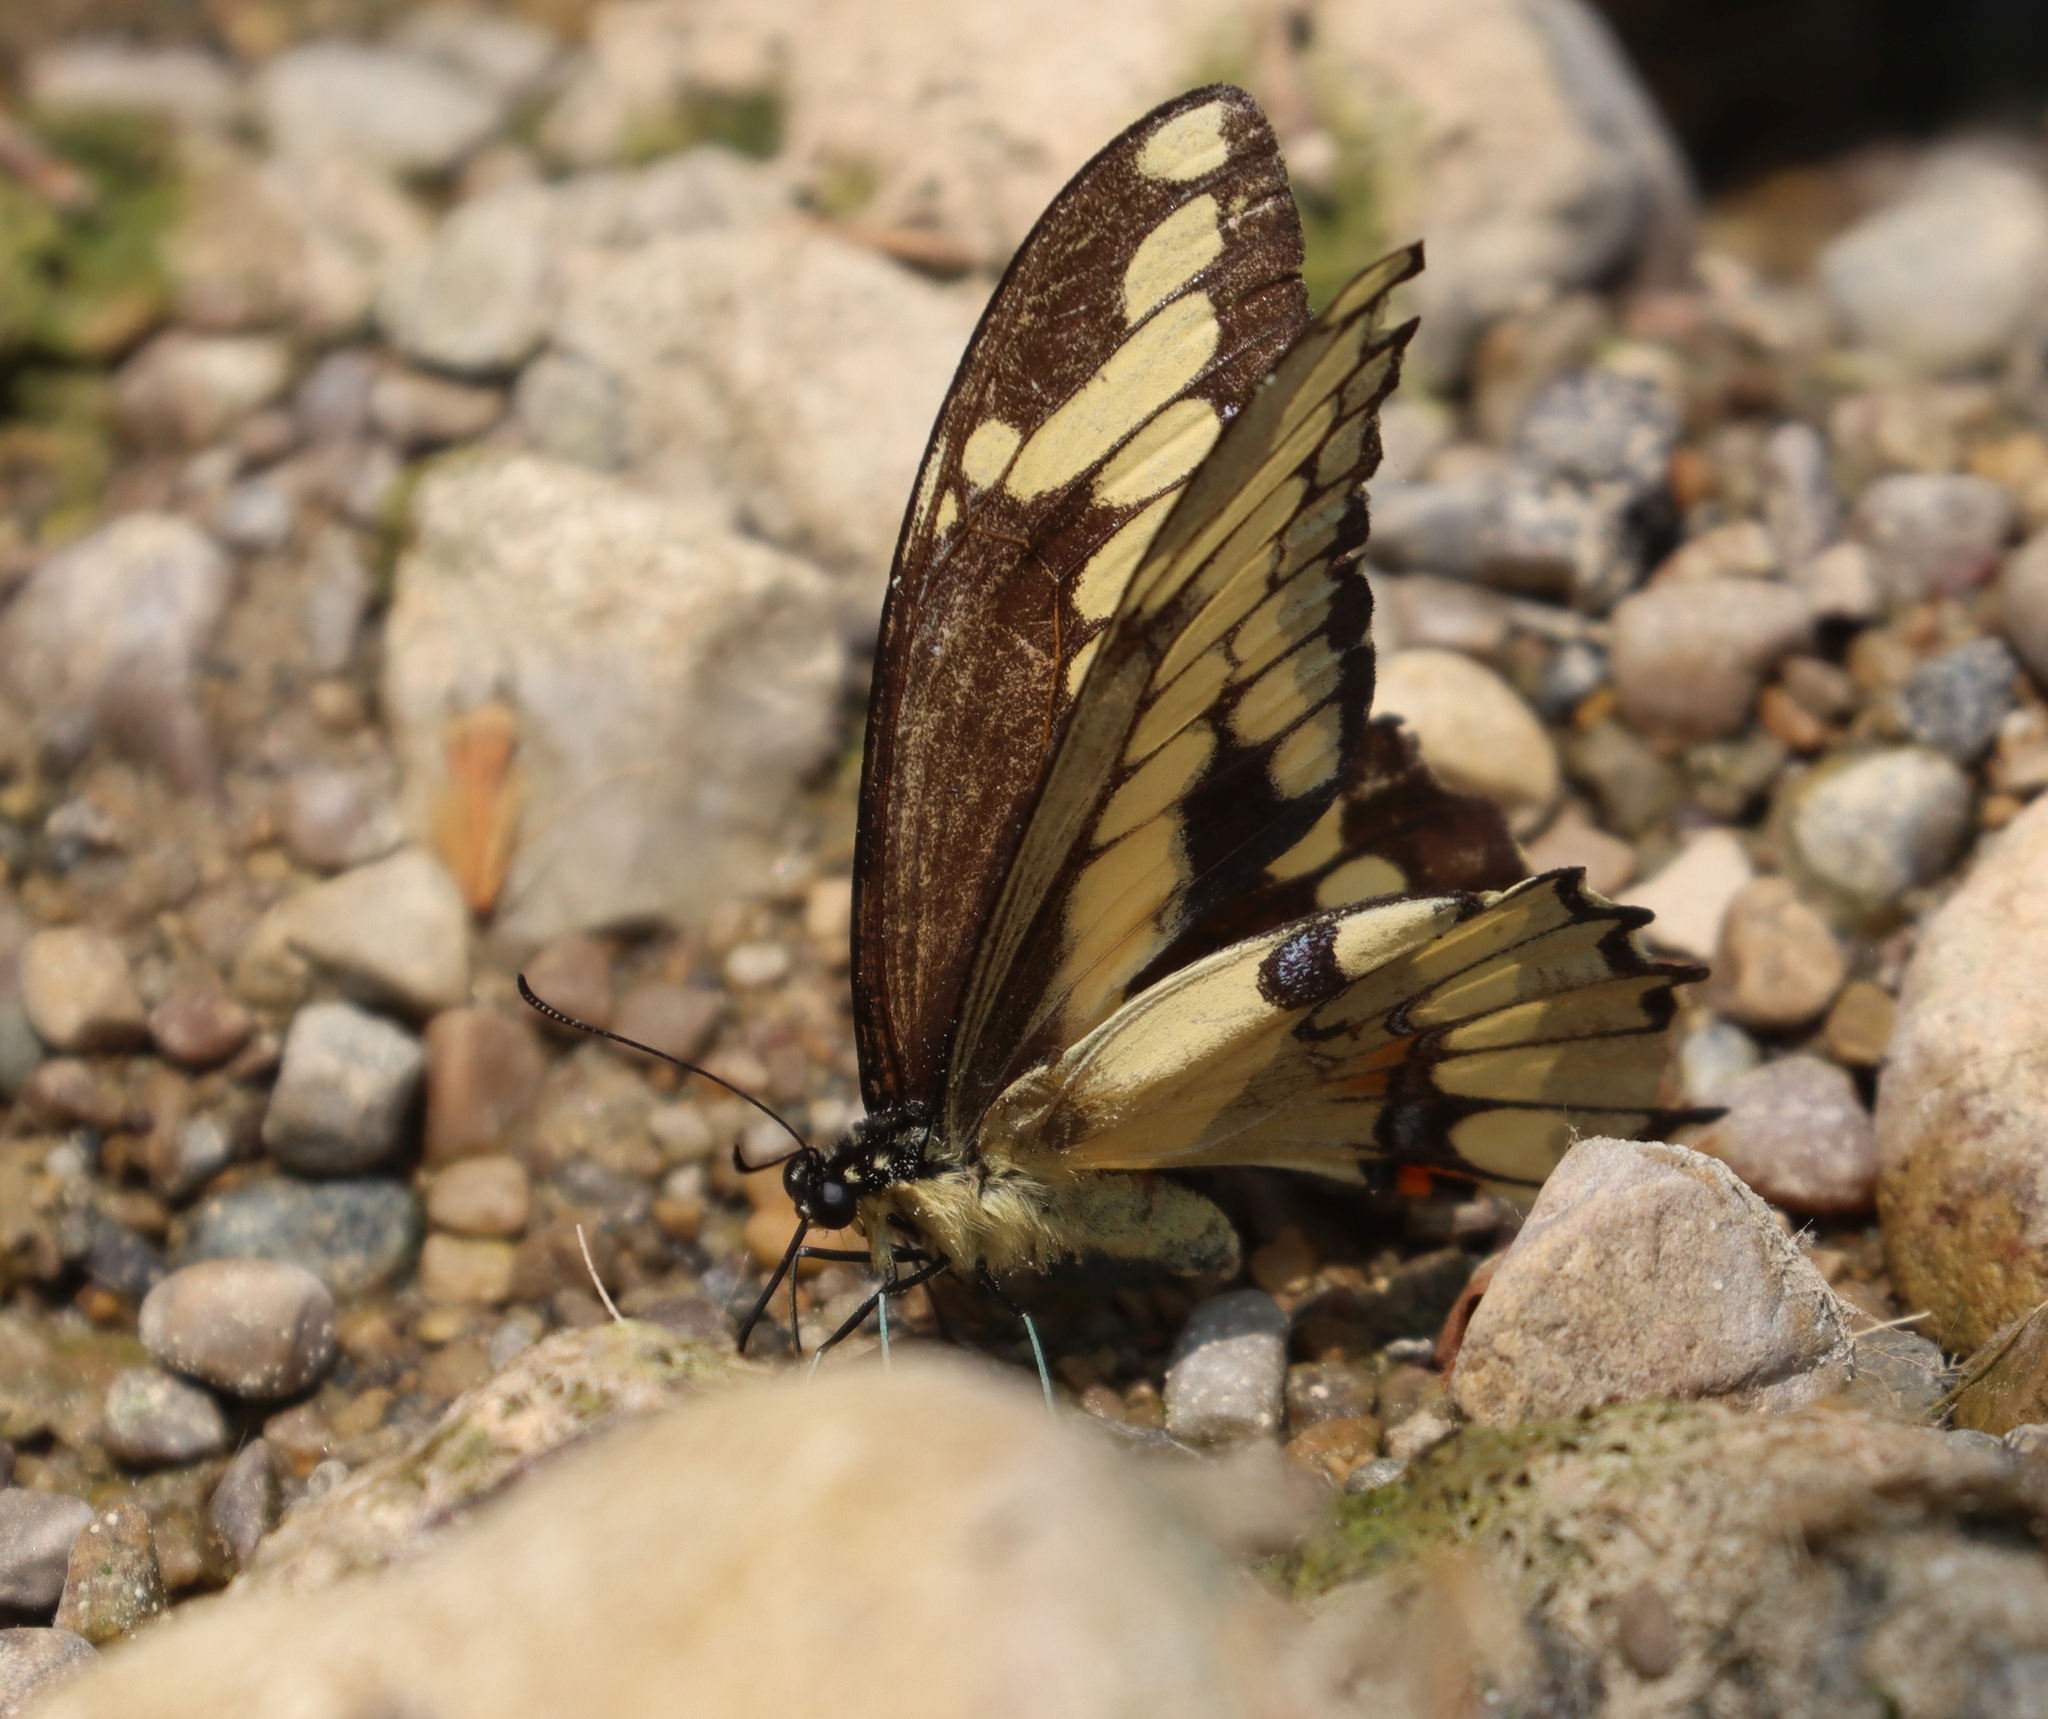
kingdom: Animalia
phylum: Arthropoda
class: Insecta
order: Lepidoptera
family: Papilionidae
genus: Papilio
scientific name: Papilio cresphontes
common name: Giant swallowtail
